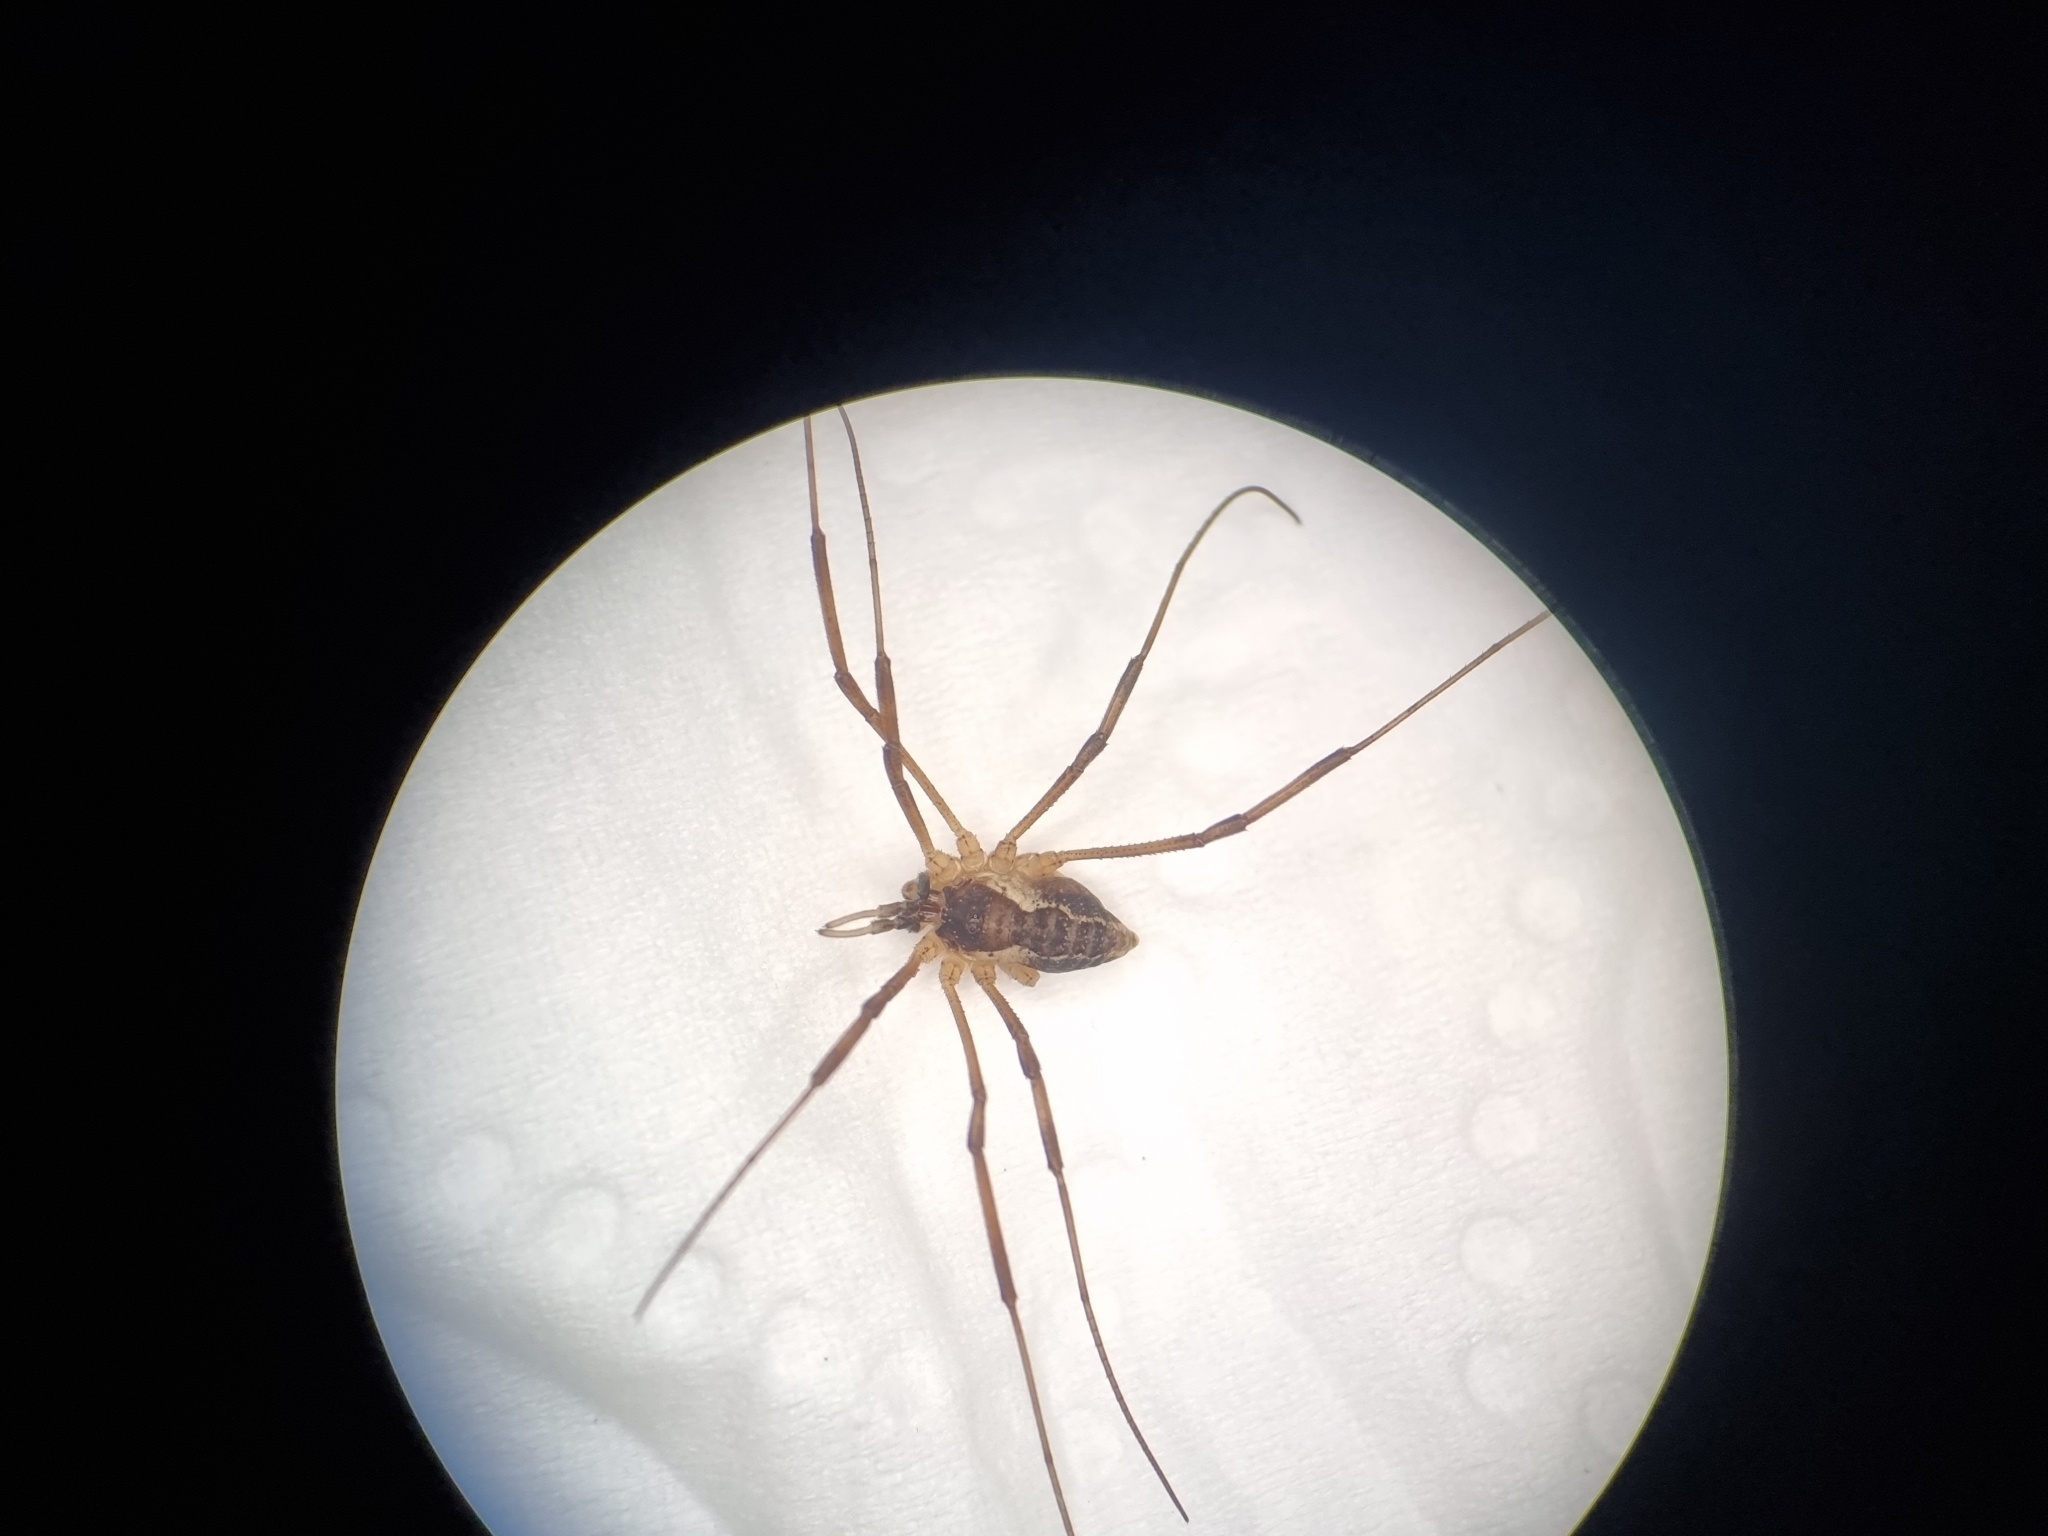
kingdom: Animalia
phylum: Arthropoda
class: Arachnida
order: Opiliones
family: Phalangiidae
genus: Mitopus
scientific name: Mitopus morio
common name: Saddleback harvestman
